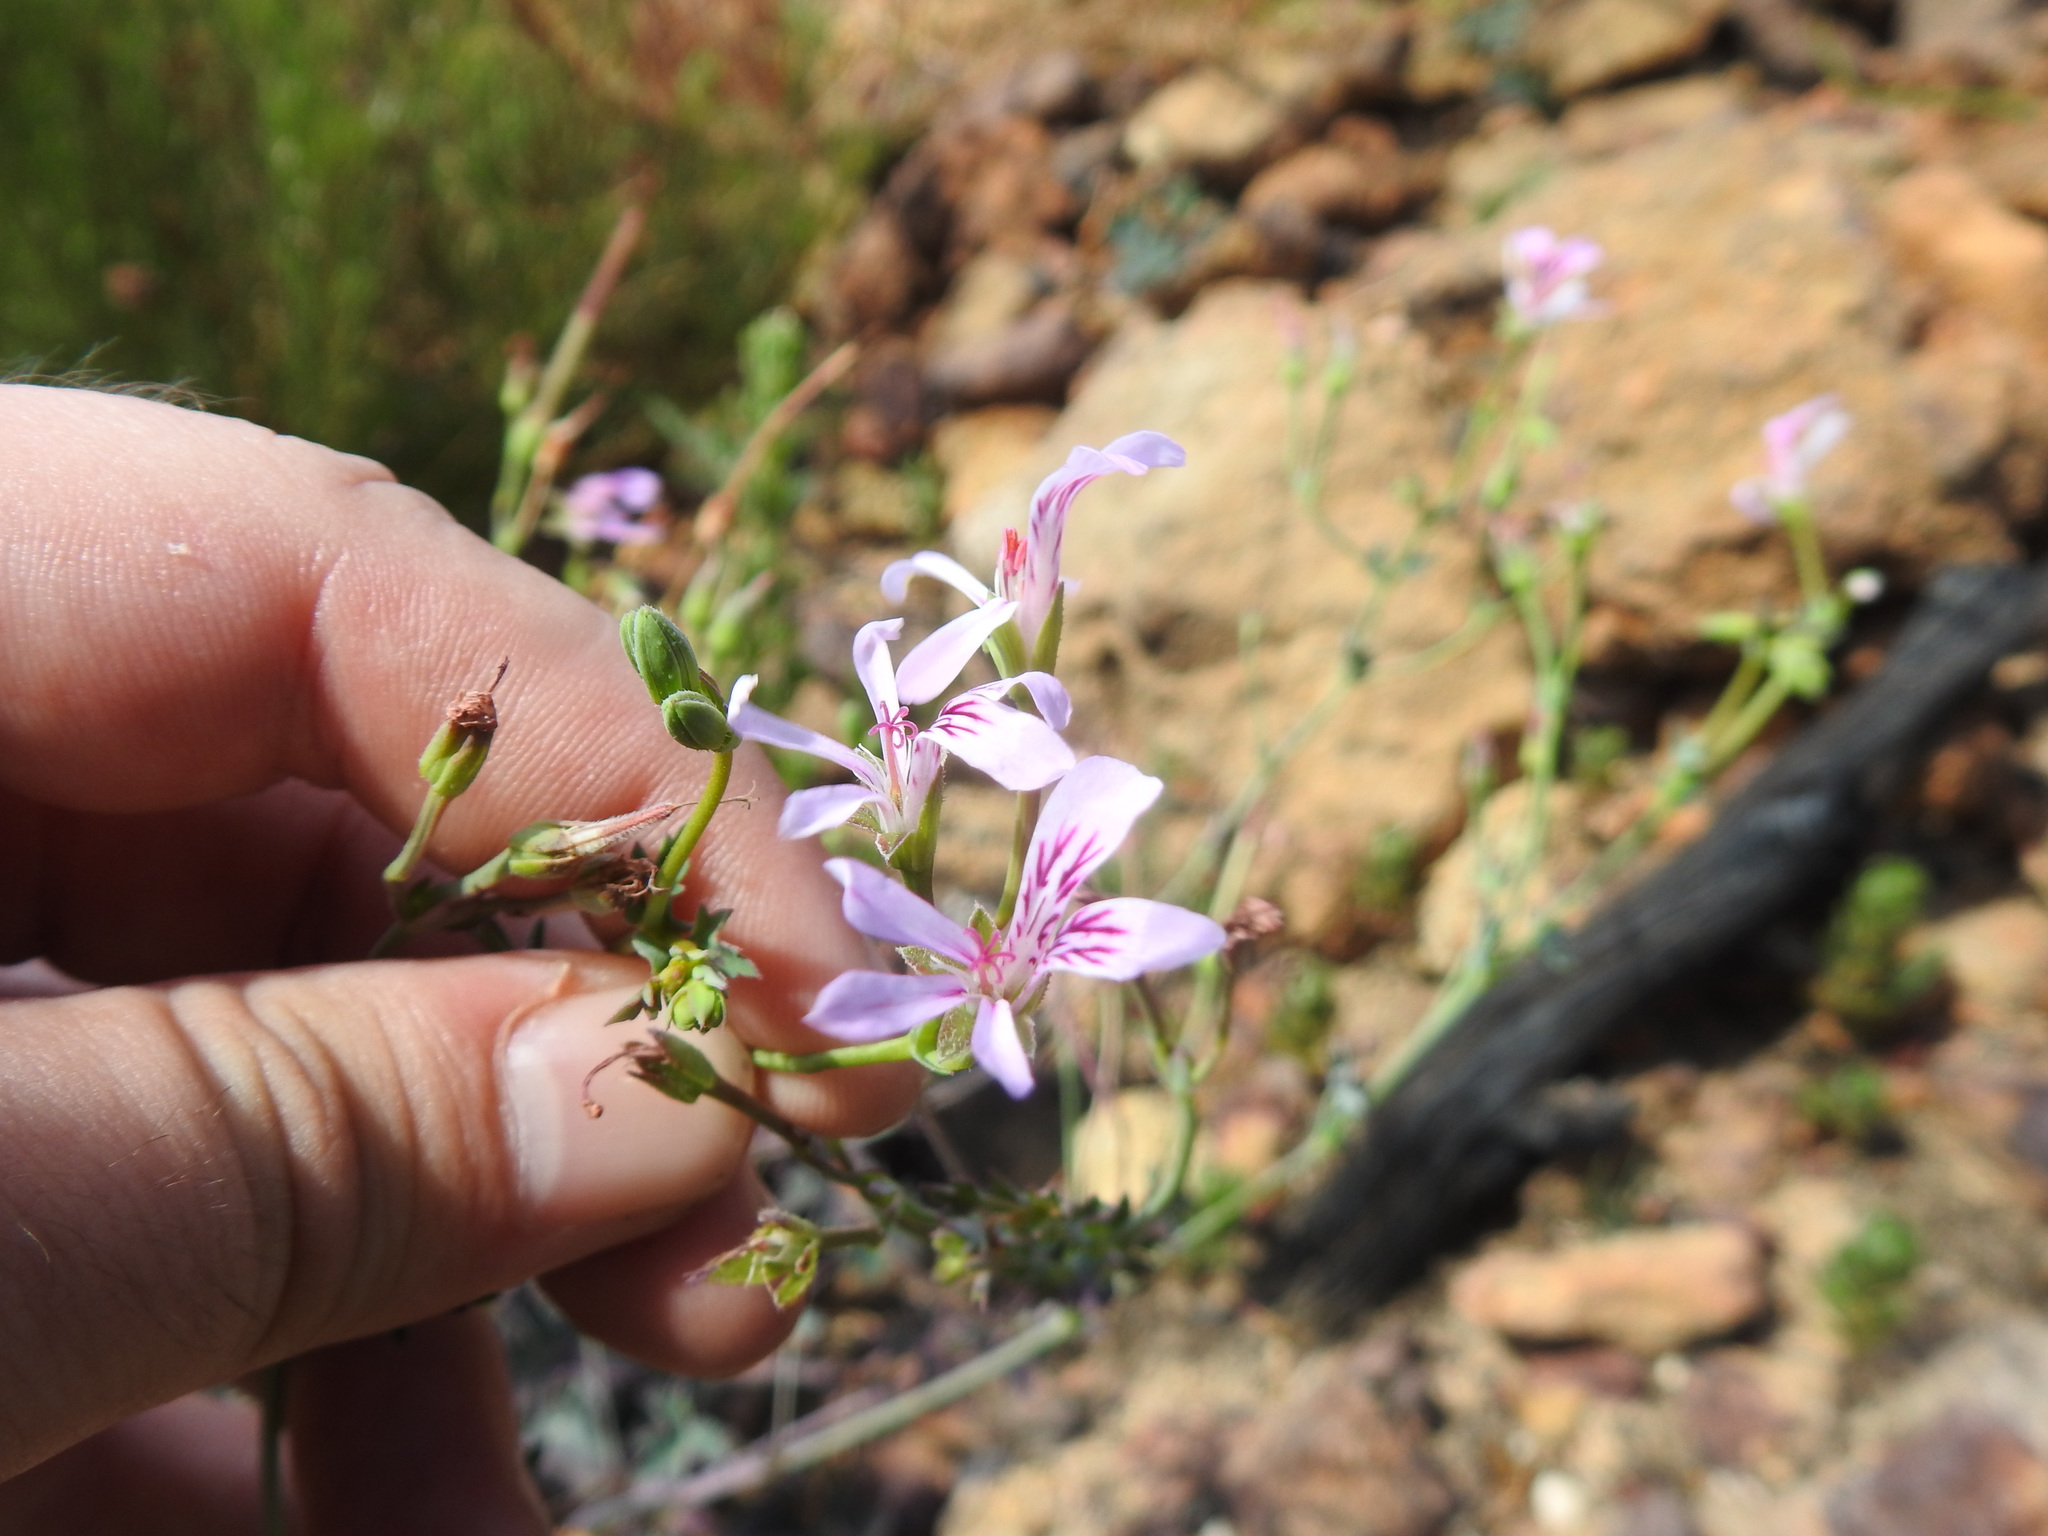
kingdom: Plantae
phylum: Tracheophyta
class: Magnoliopsida
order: Geraniales
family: Geraniaceae
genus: Pelargonium
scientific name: Pelargonium tabulare
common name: Table mountain pelargonium
